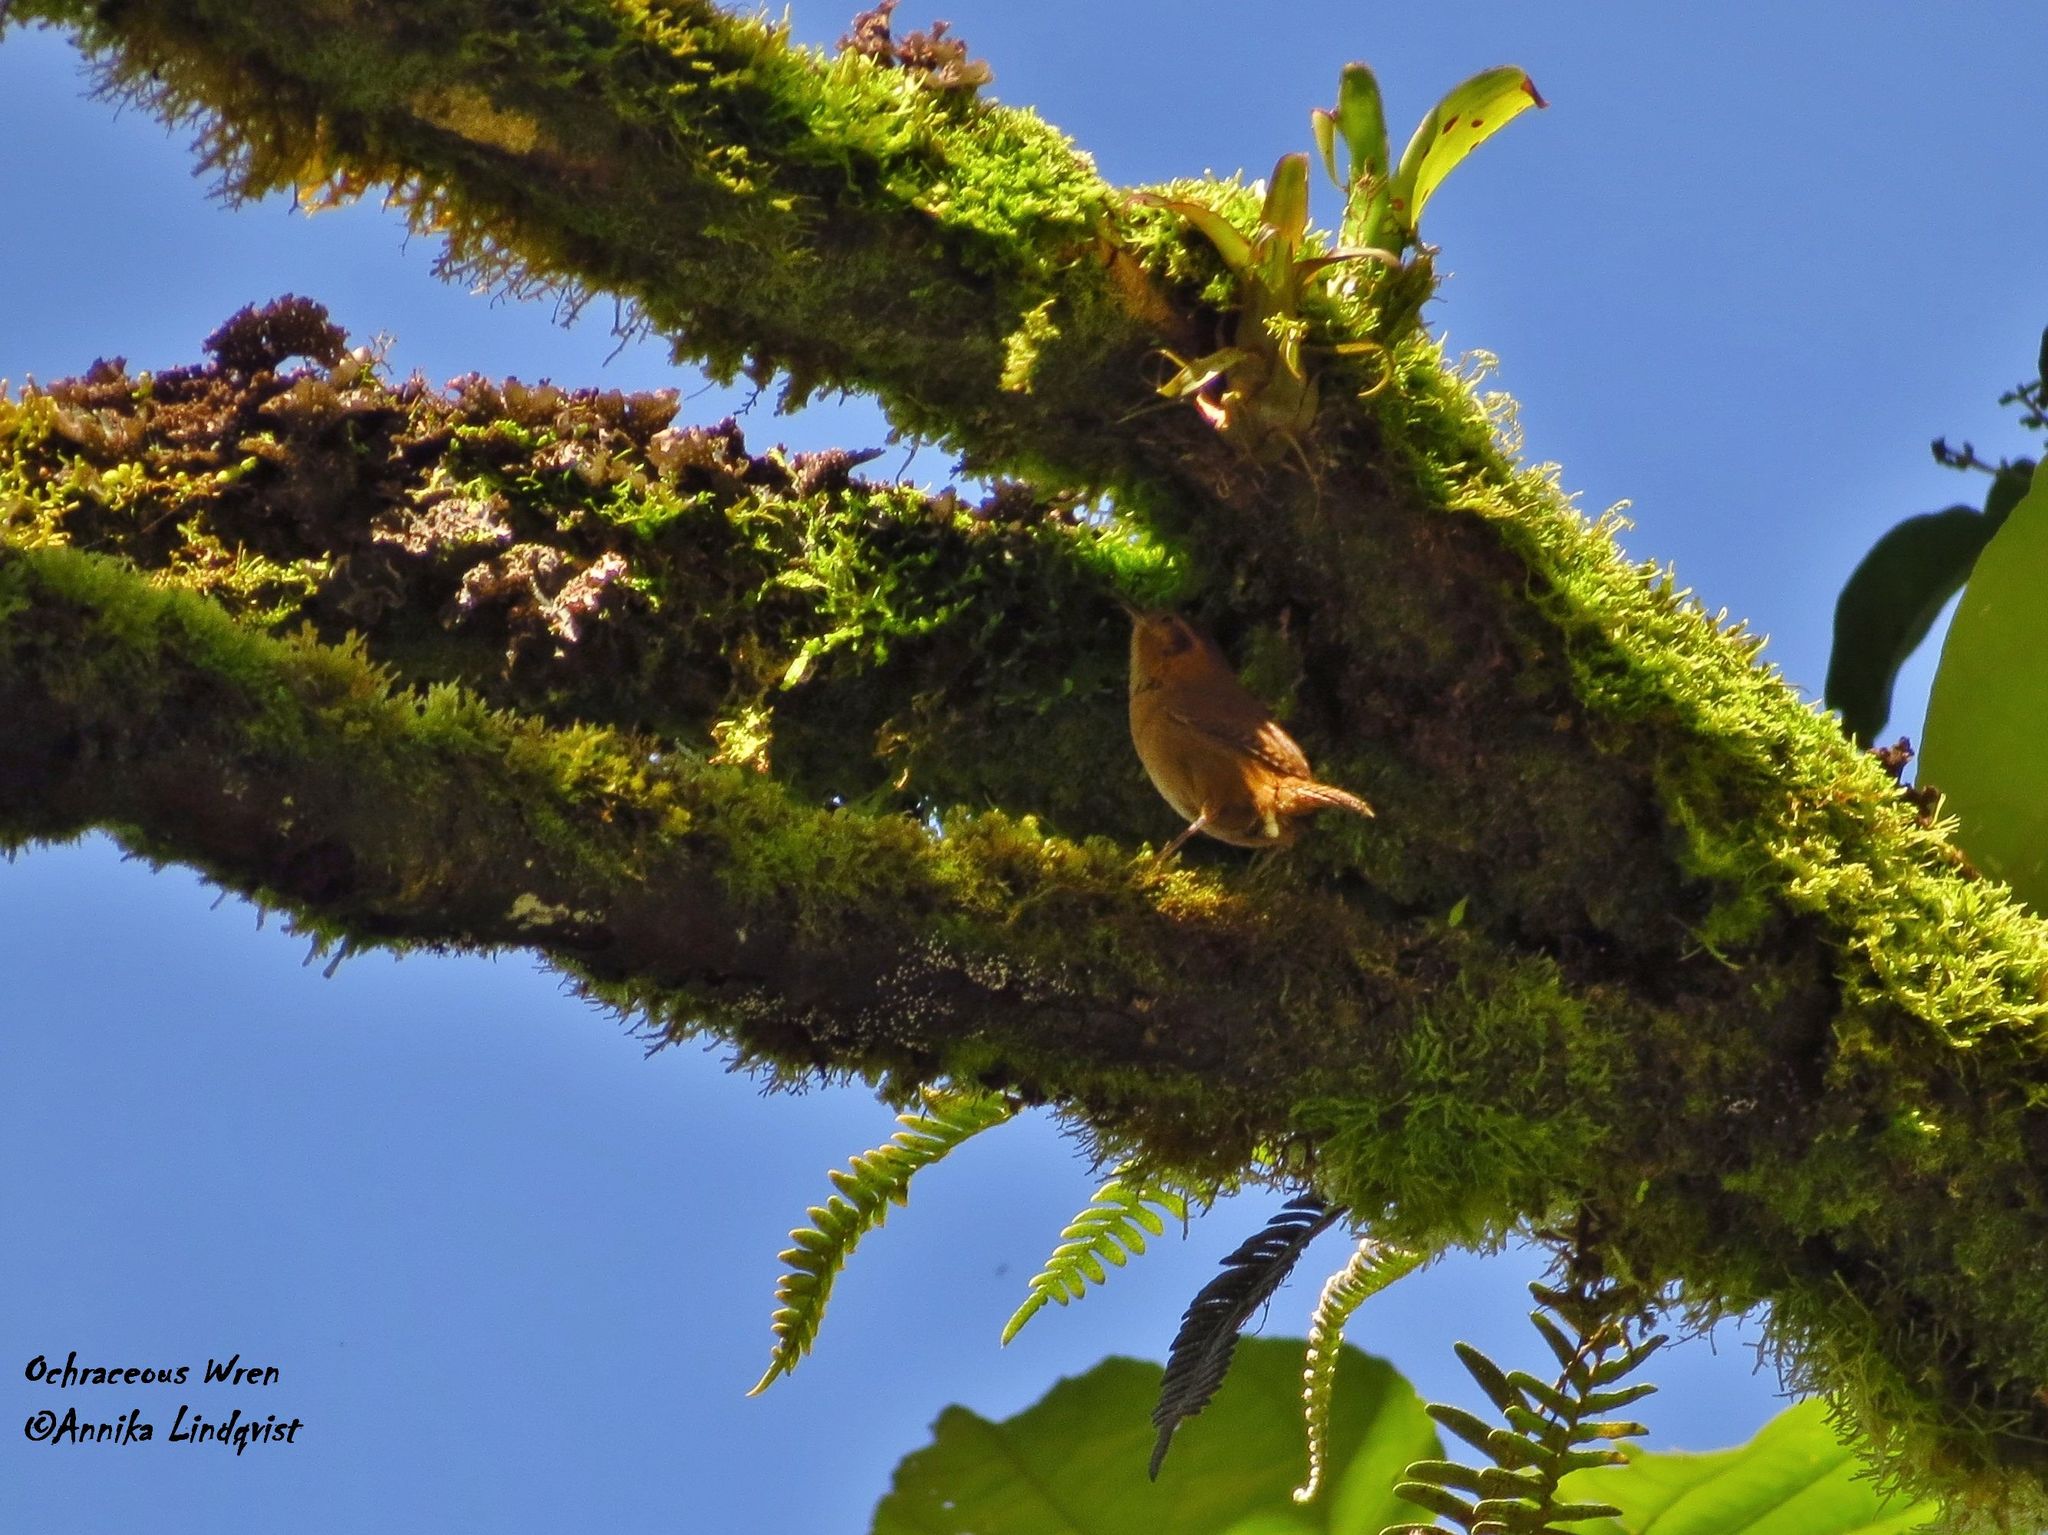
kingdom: Animalia
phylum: Chordata
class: Aves
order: Passeriformes
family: Troglodytidae
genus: Troglodytes
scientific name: Troglodytes ochraceus
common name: Ochraceous wren
